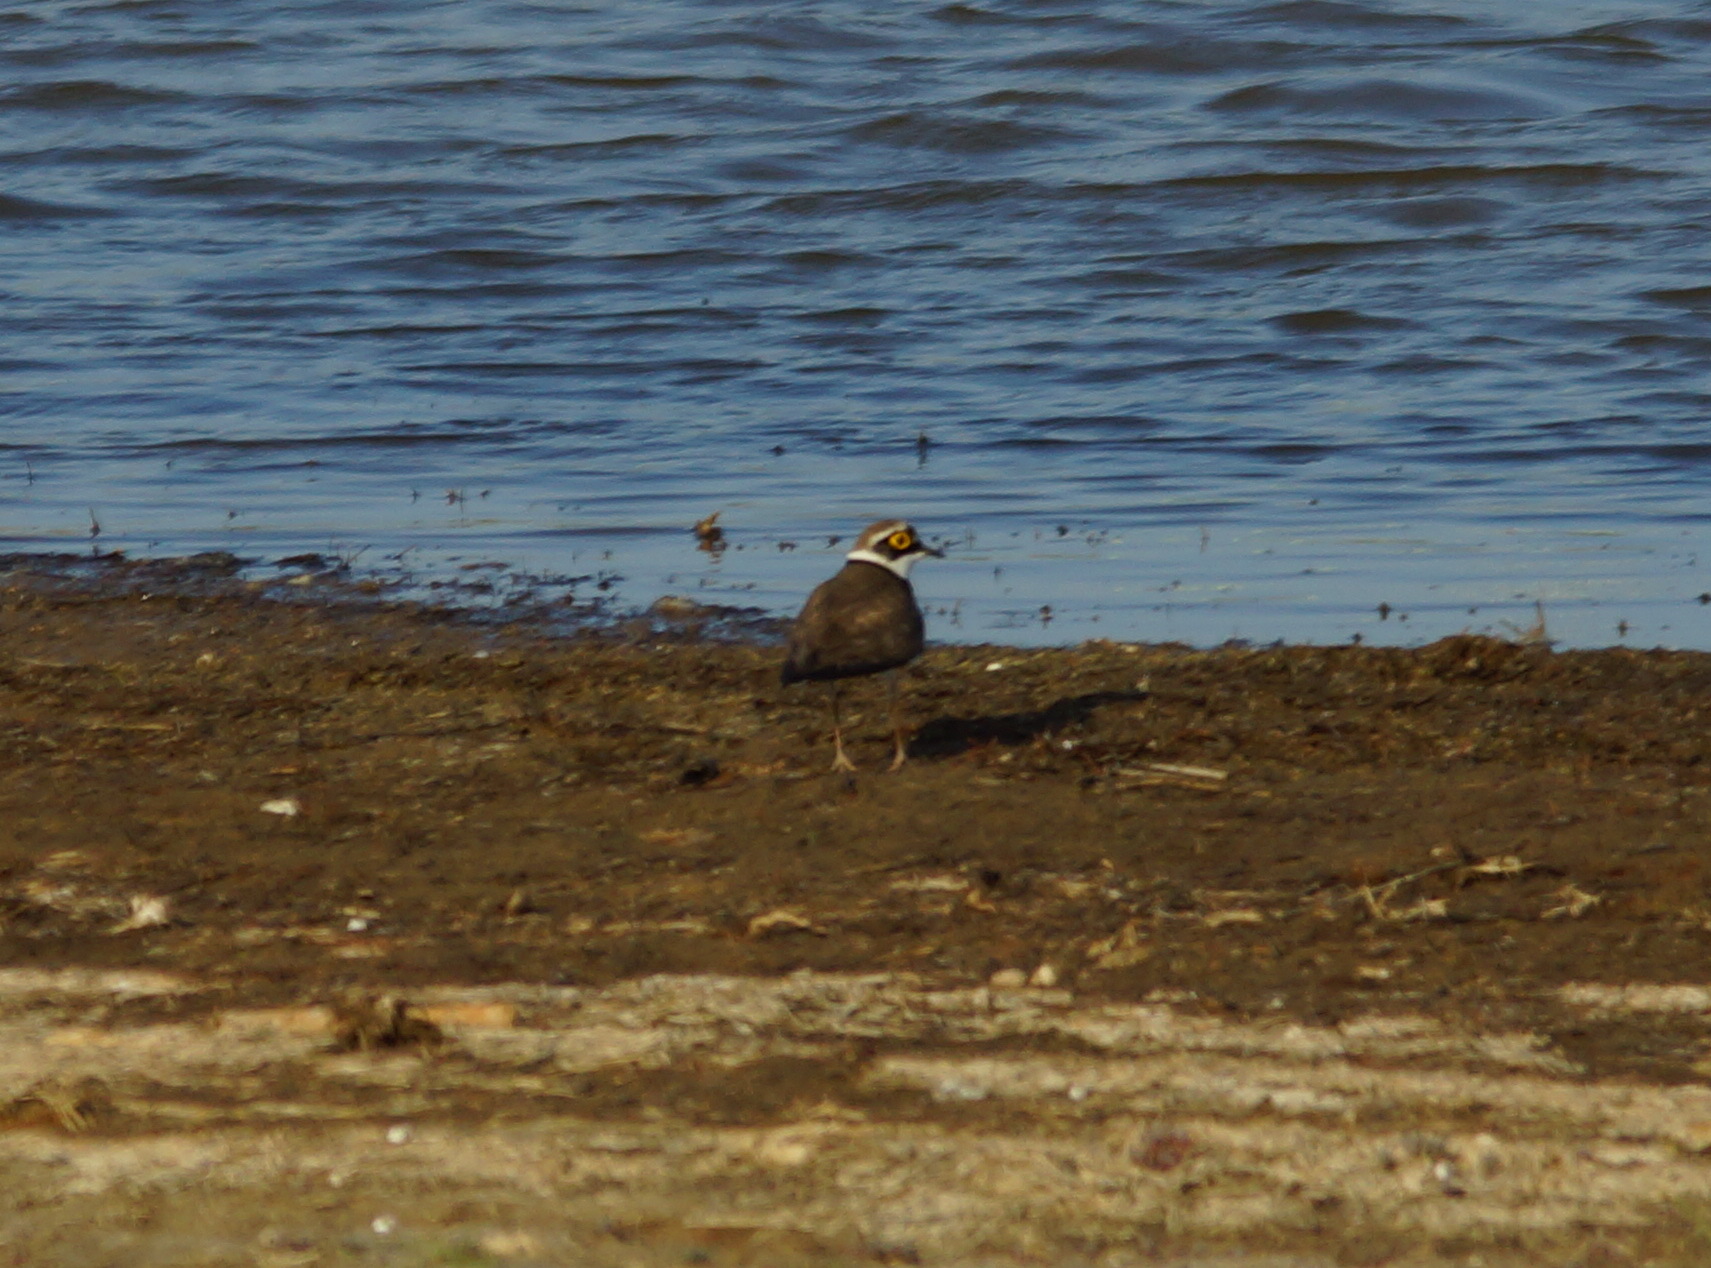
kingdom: Animalia
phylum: Chordata
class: Aves
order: Charadriiformes
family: Charadriidae
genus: Charadrius
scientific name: Charadrius dubius
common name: Little ringed plover
